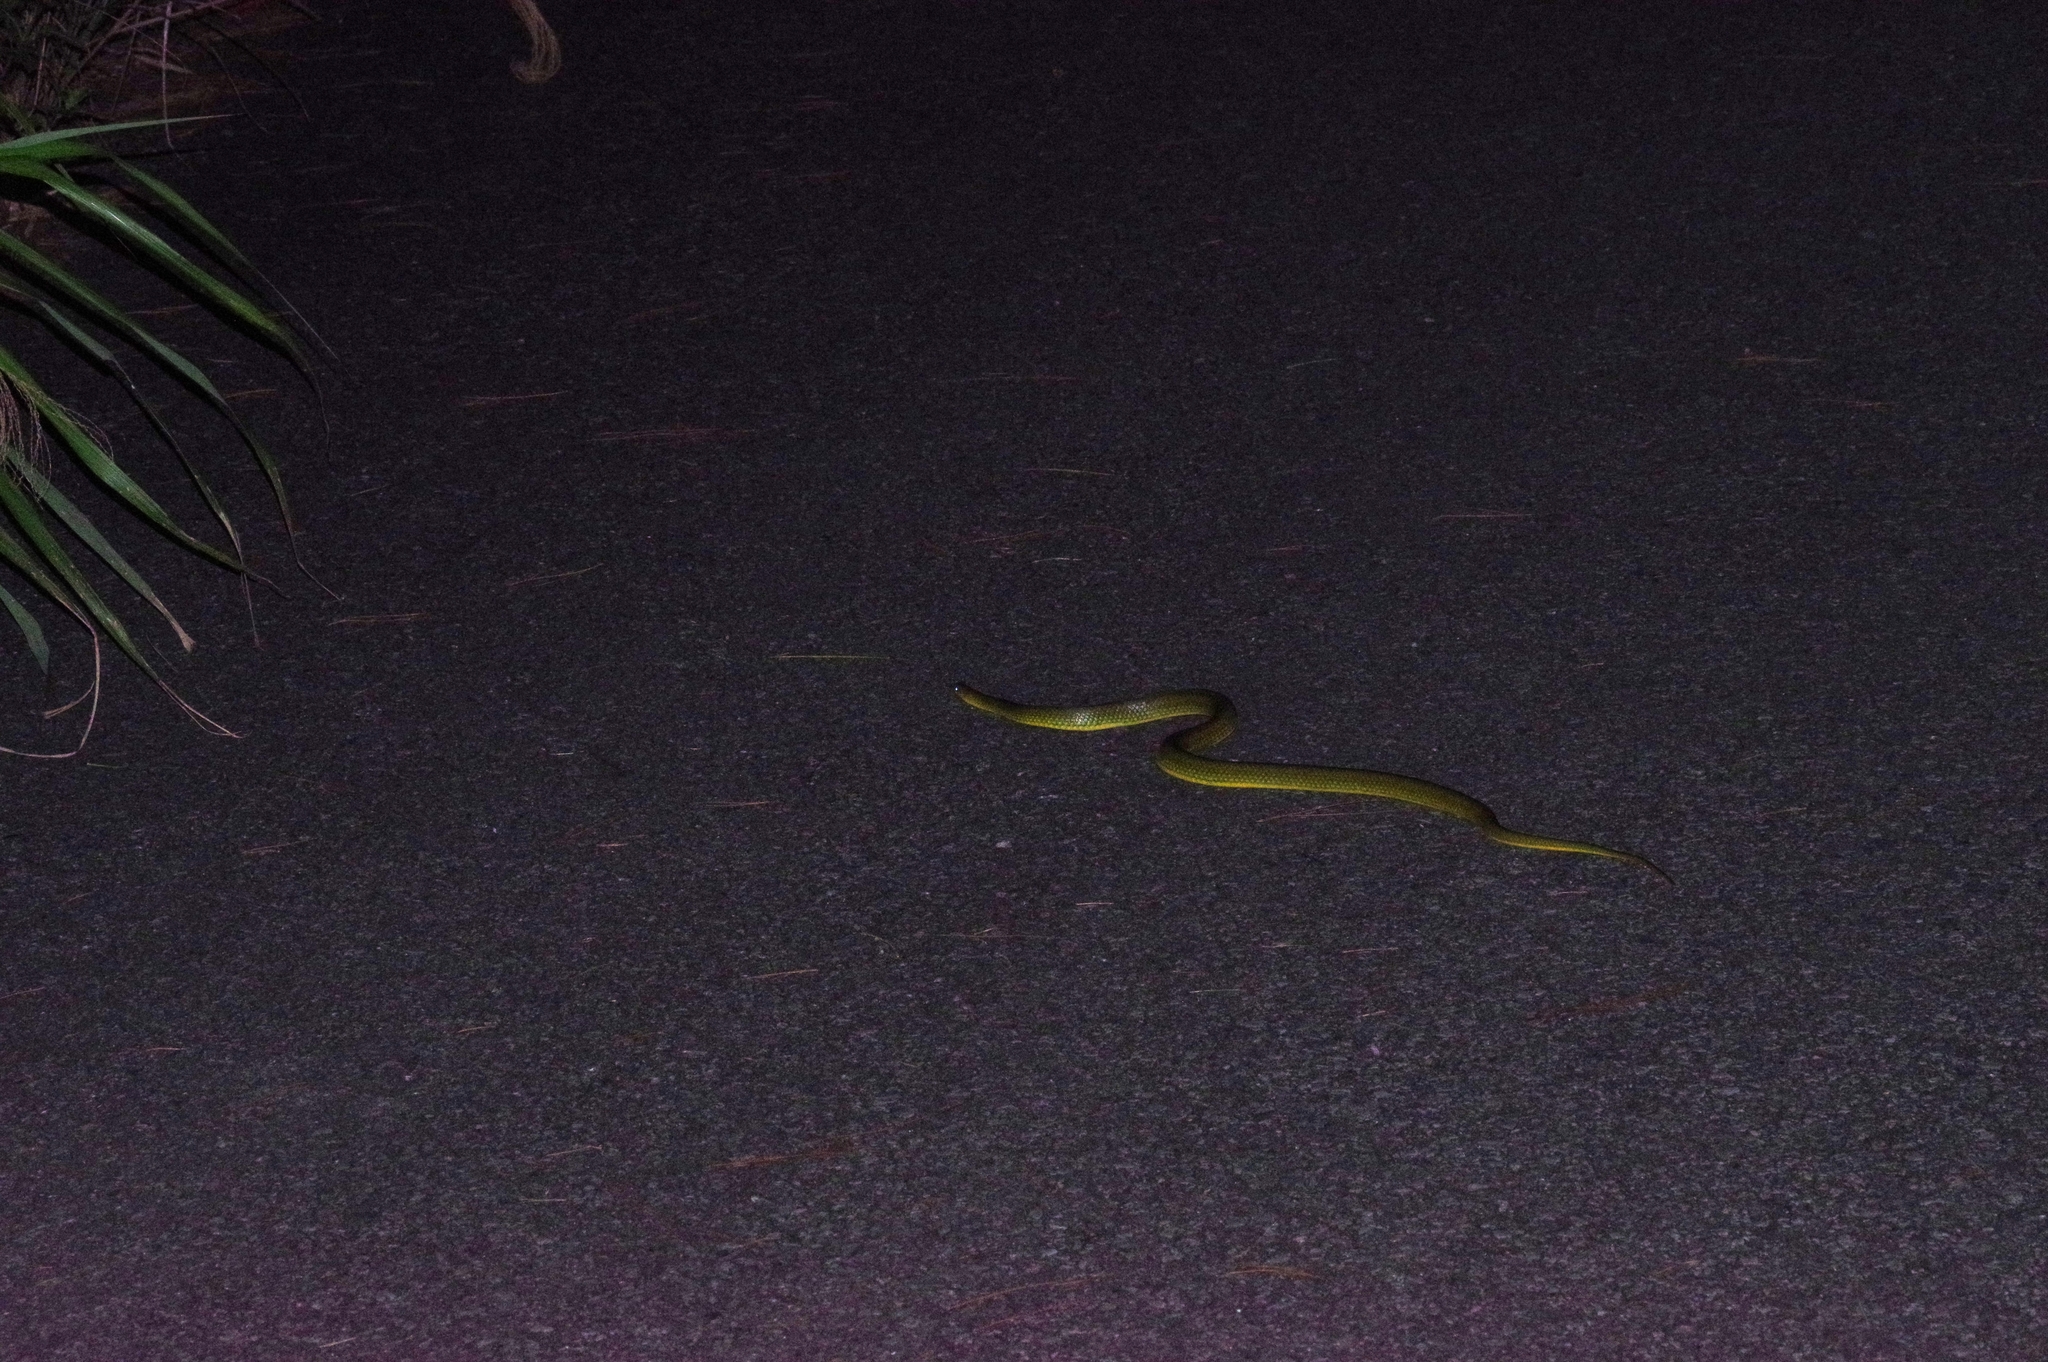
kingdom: Animalia
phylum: Chordata
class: Squamata
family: Colubridae
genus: Ptyas
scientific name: Ptyas semicarinata
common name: Ryukyu green snake
